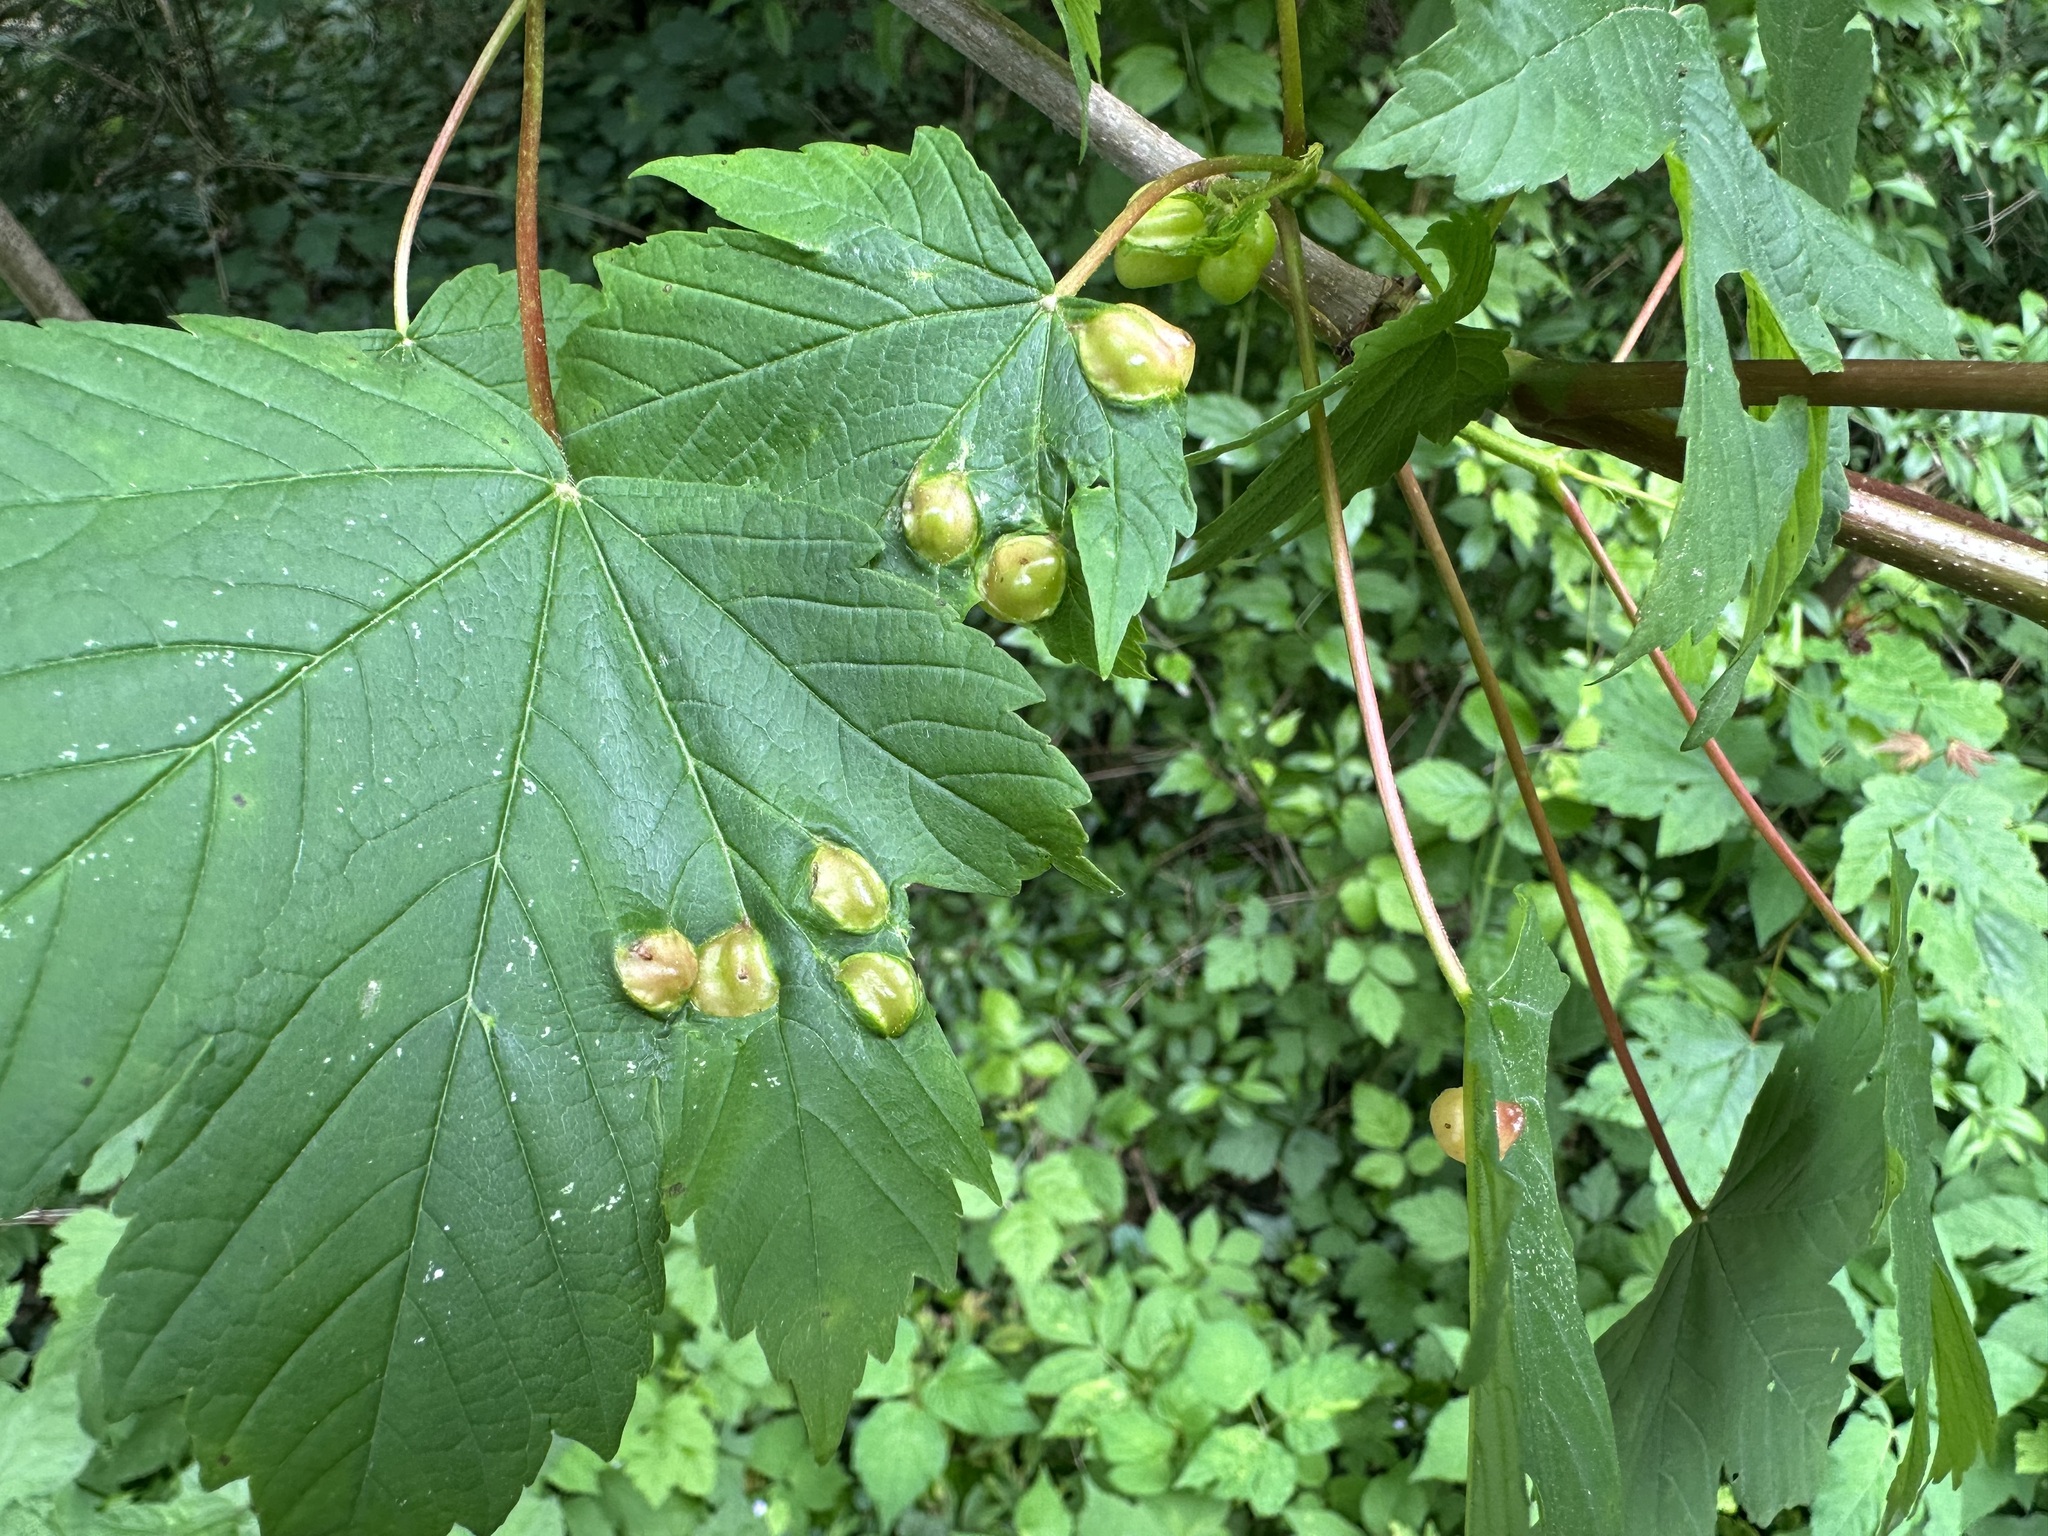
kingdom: Animalia
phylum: Arthropoda
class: Insecta
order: Hymenoptera
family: Cynipidae
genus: Pediaspis
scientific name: Pediaspis aceris
